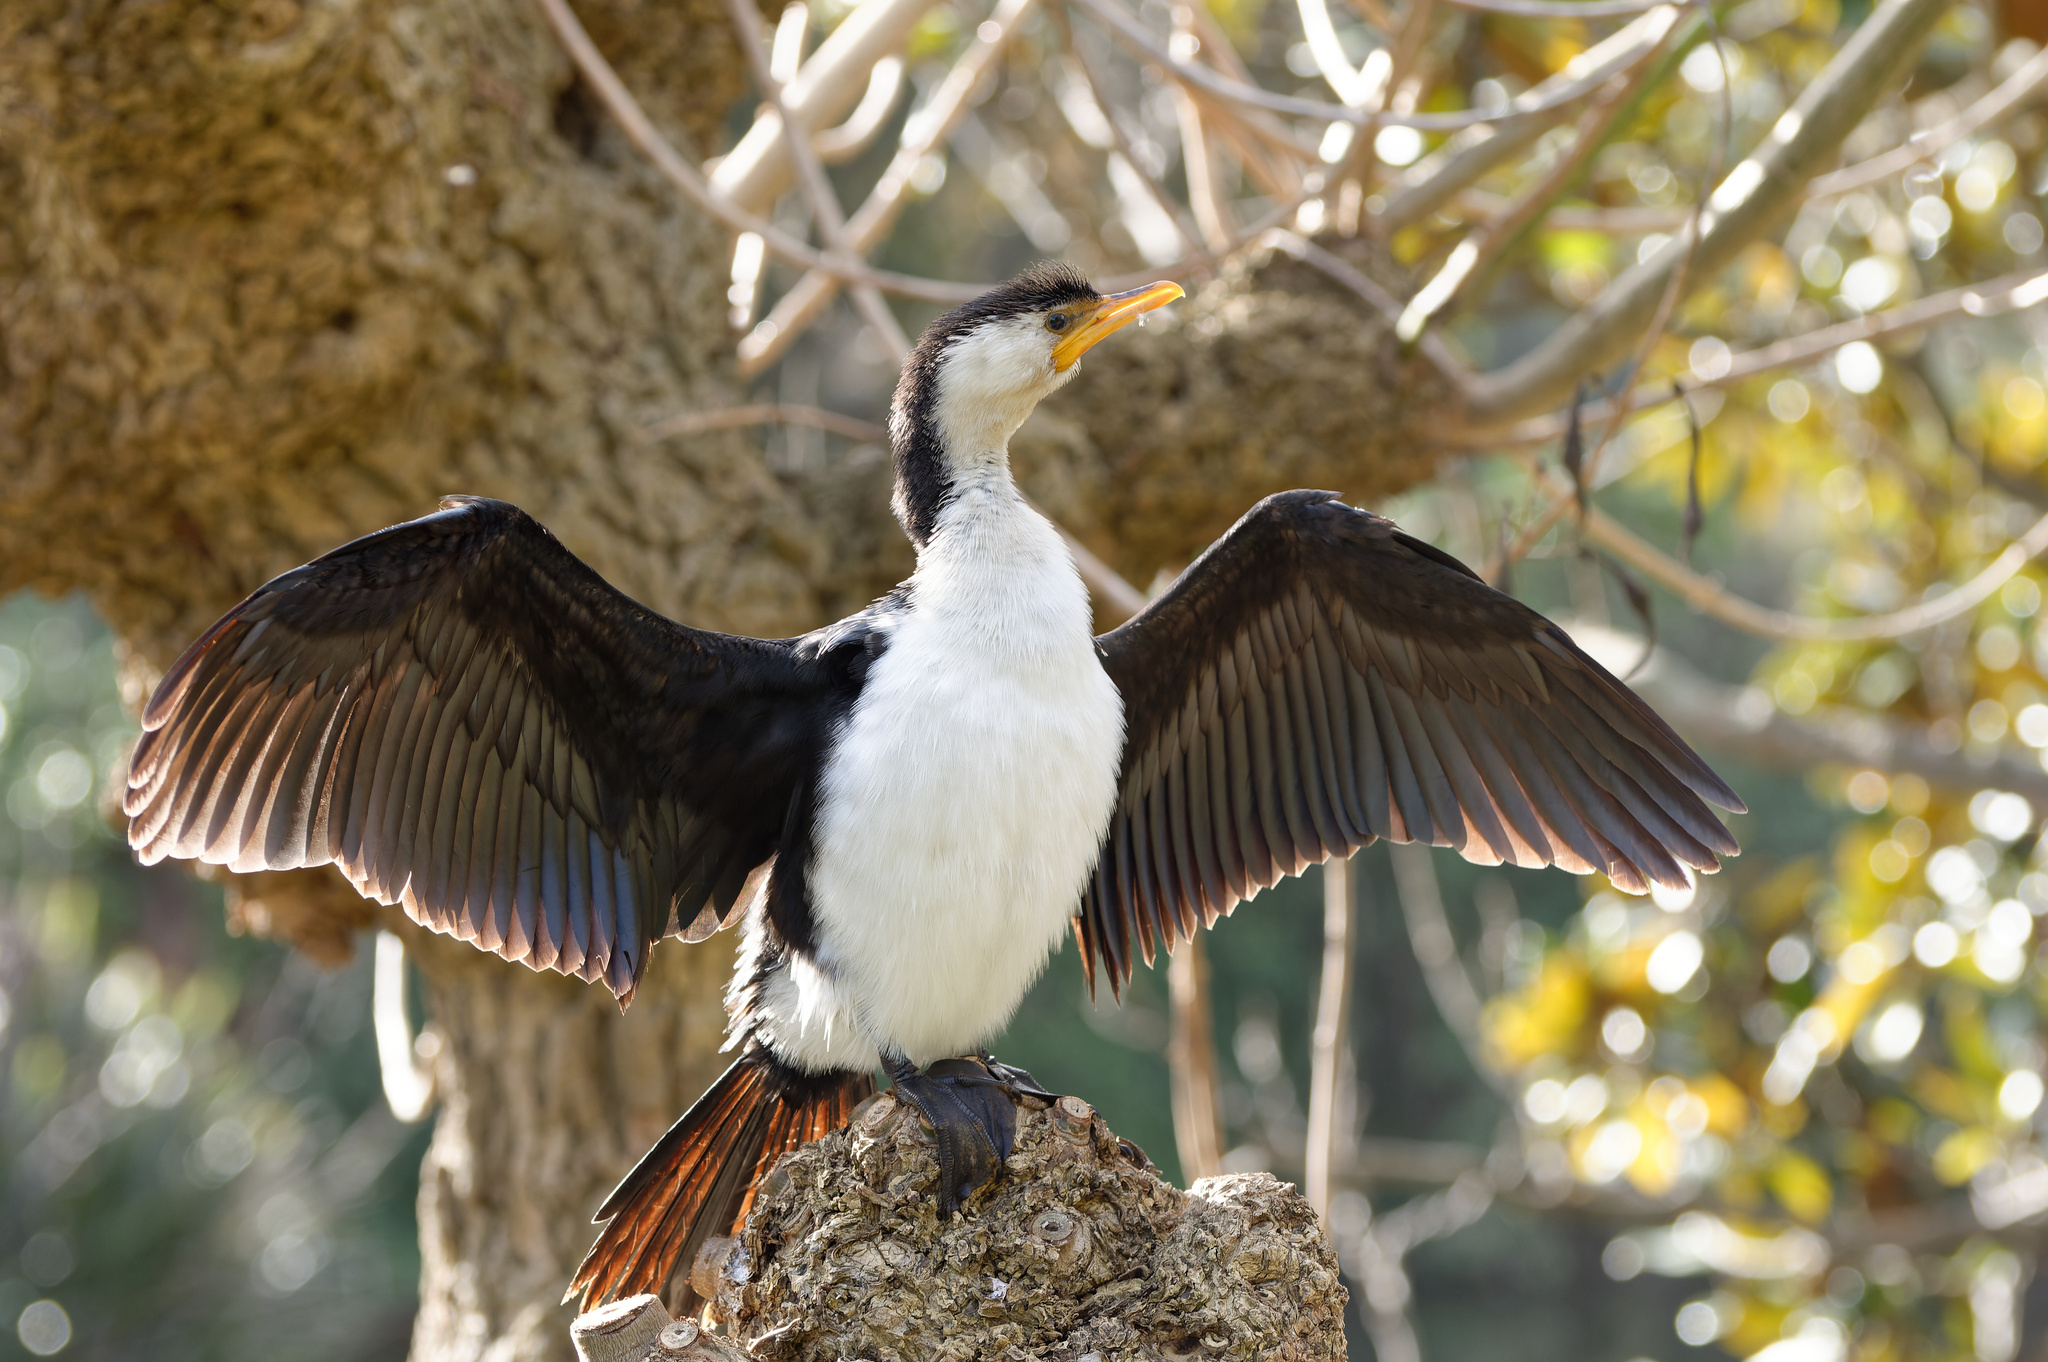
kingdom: Animalia
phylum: Chordata
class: Aves
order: Suliformes
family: Phalacrocoracidae
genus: Microcarbo
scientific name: Microcarbo melanoleucos
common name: Little pied cormorant
